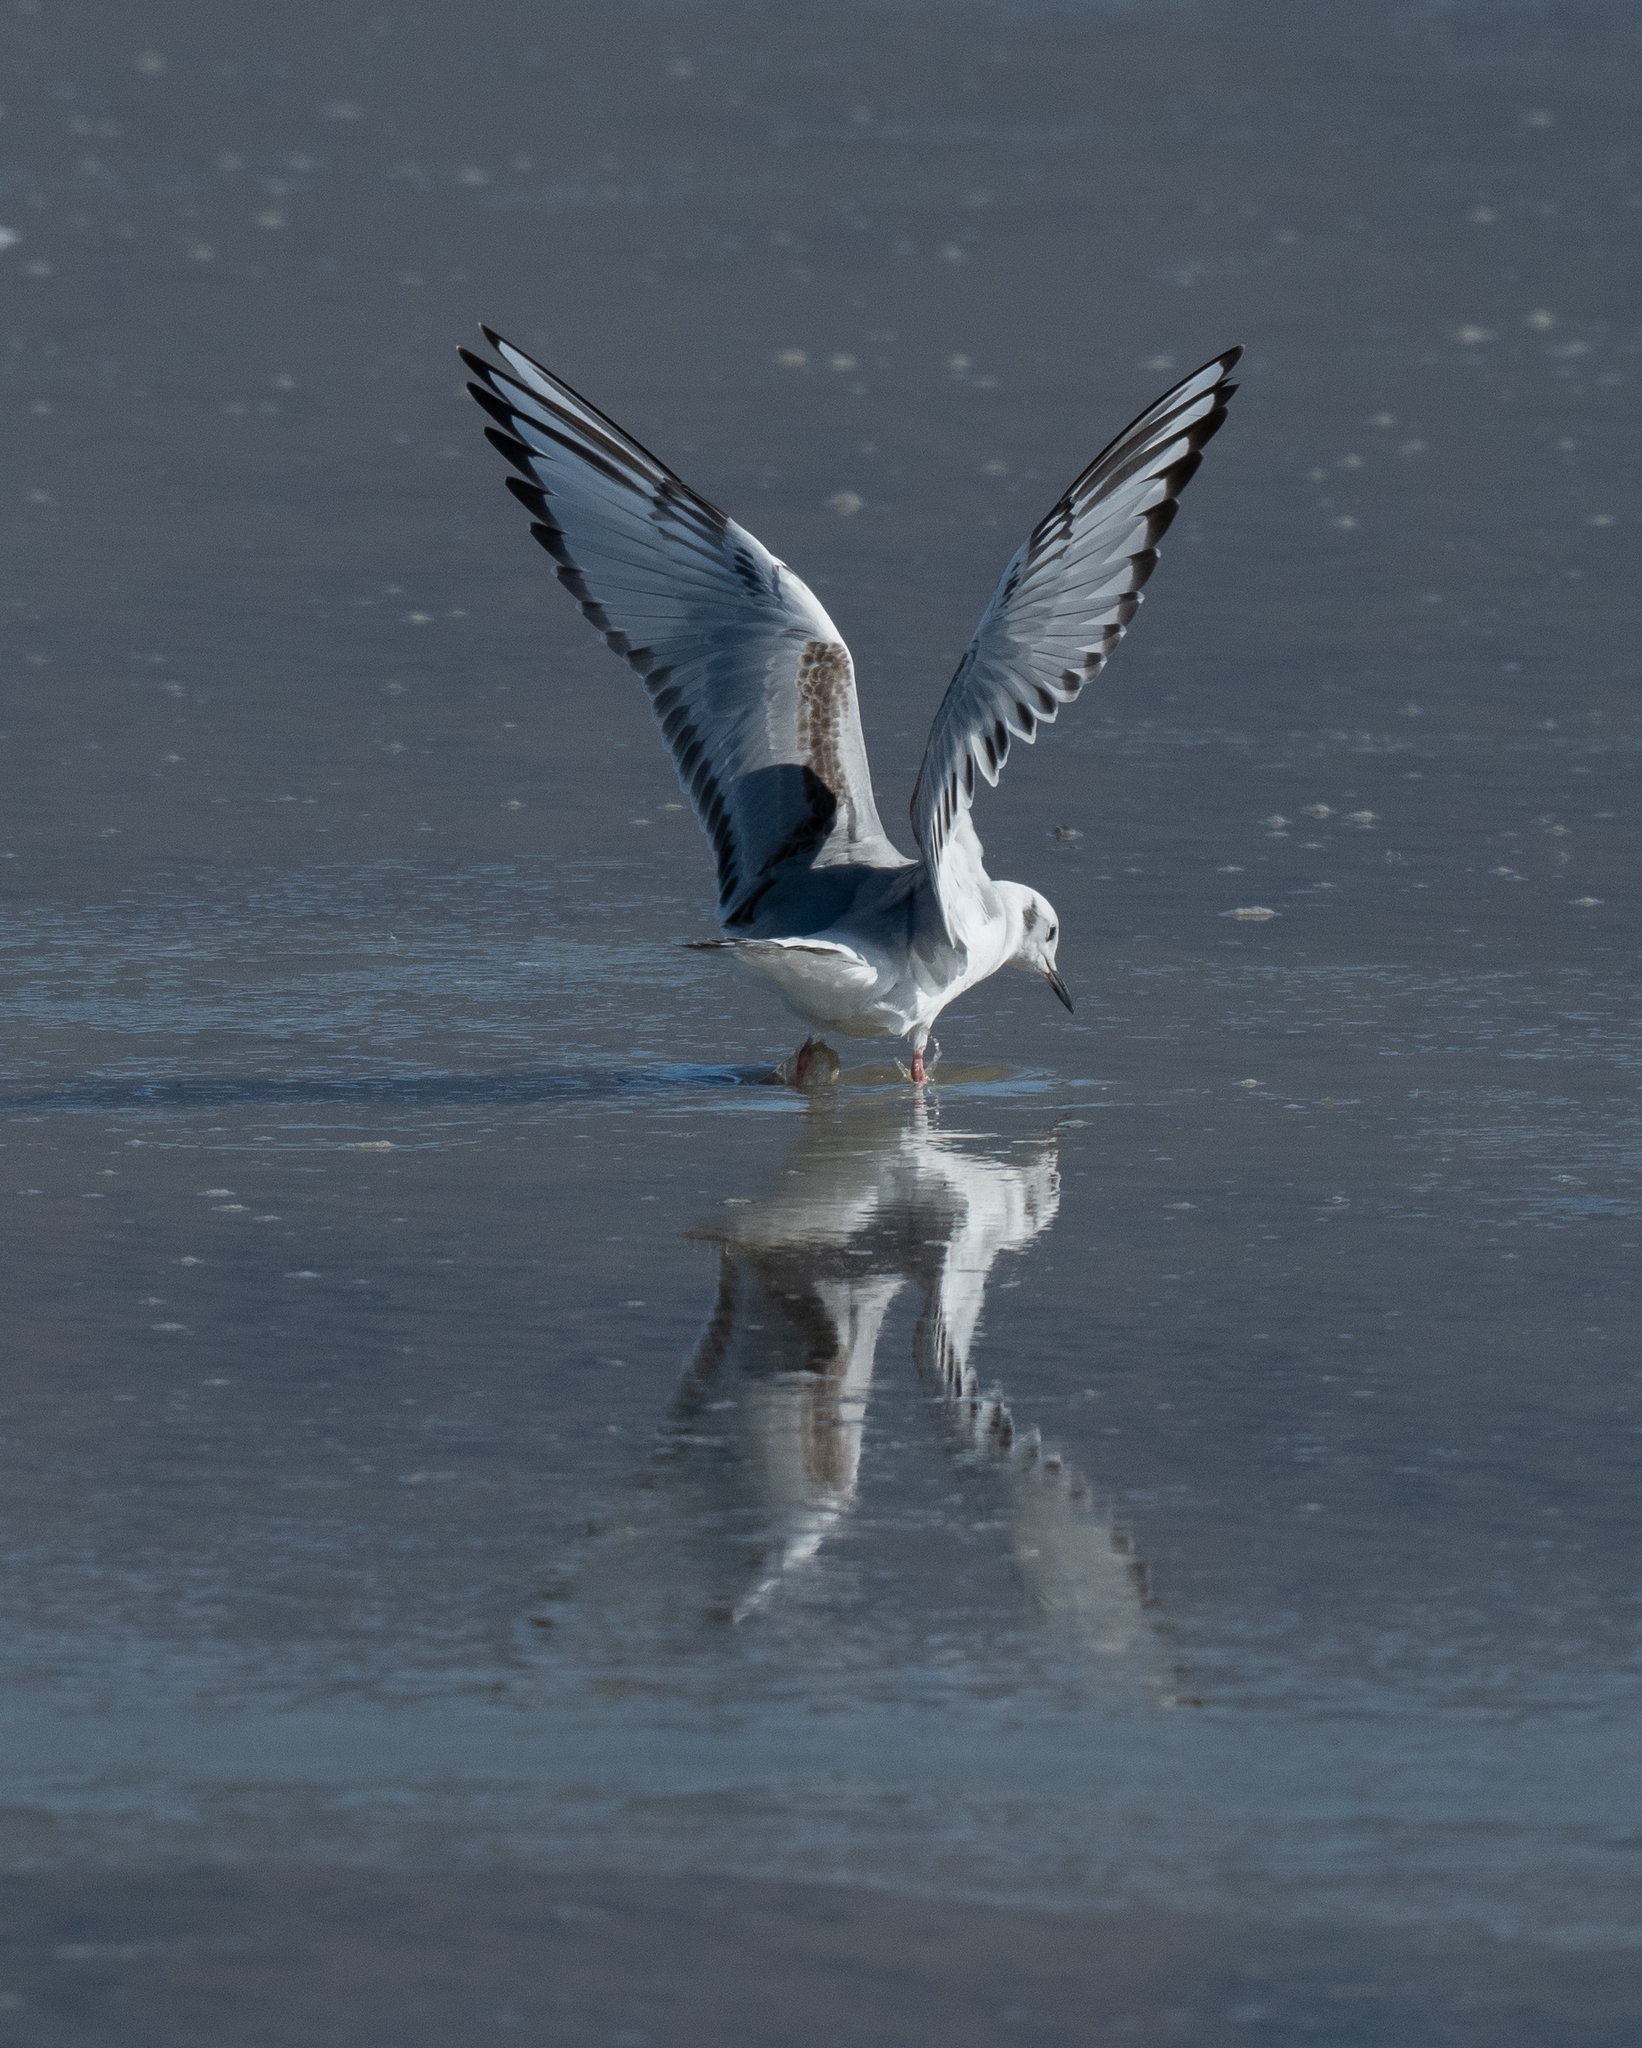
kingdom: Animalia
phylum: Chordata
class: Aves
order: Charadriiformes
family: Laridae
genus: Chroicocephalus
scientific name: Chroicocephalus philadelphia
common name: Bonaparte's gull
